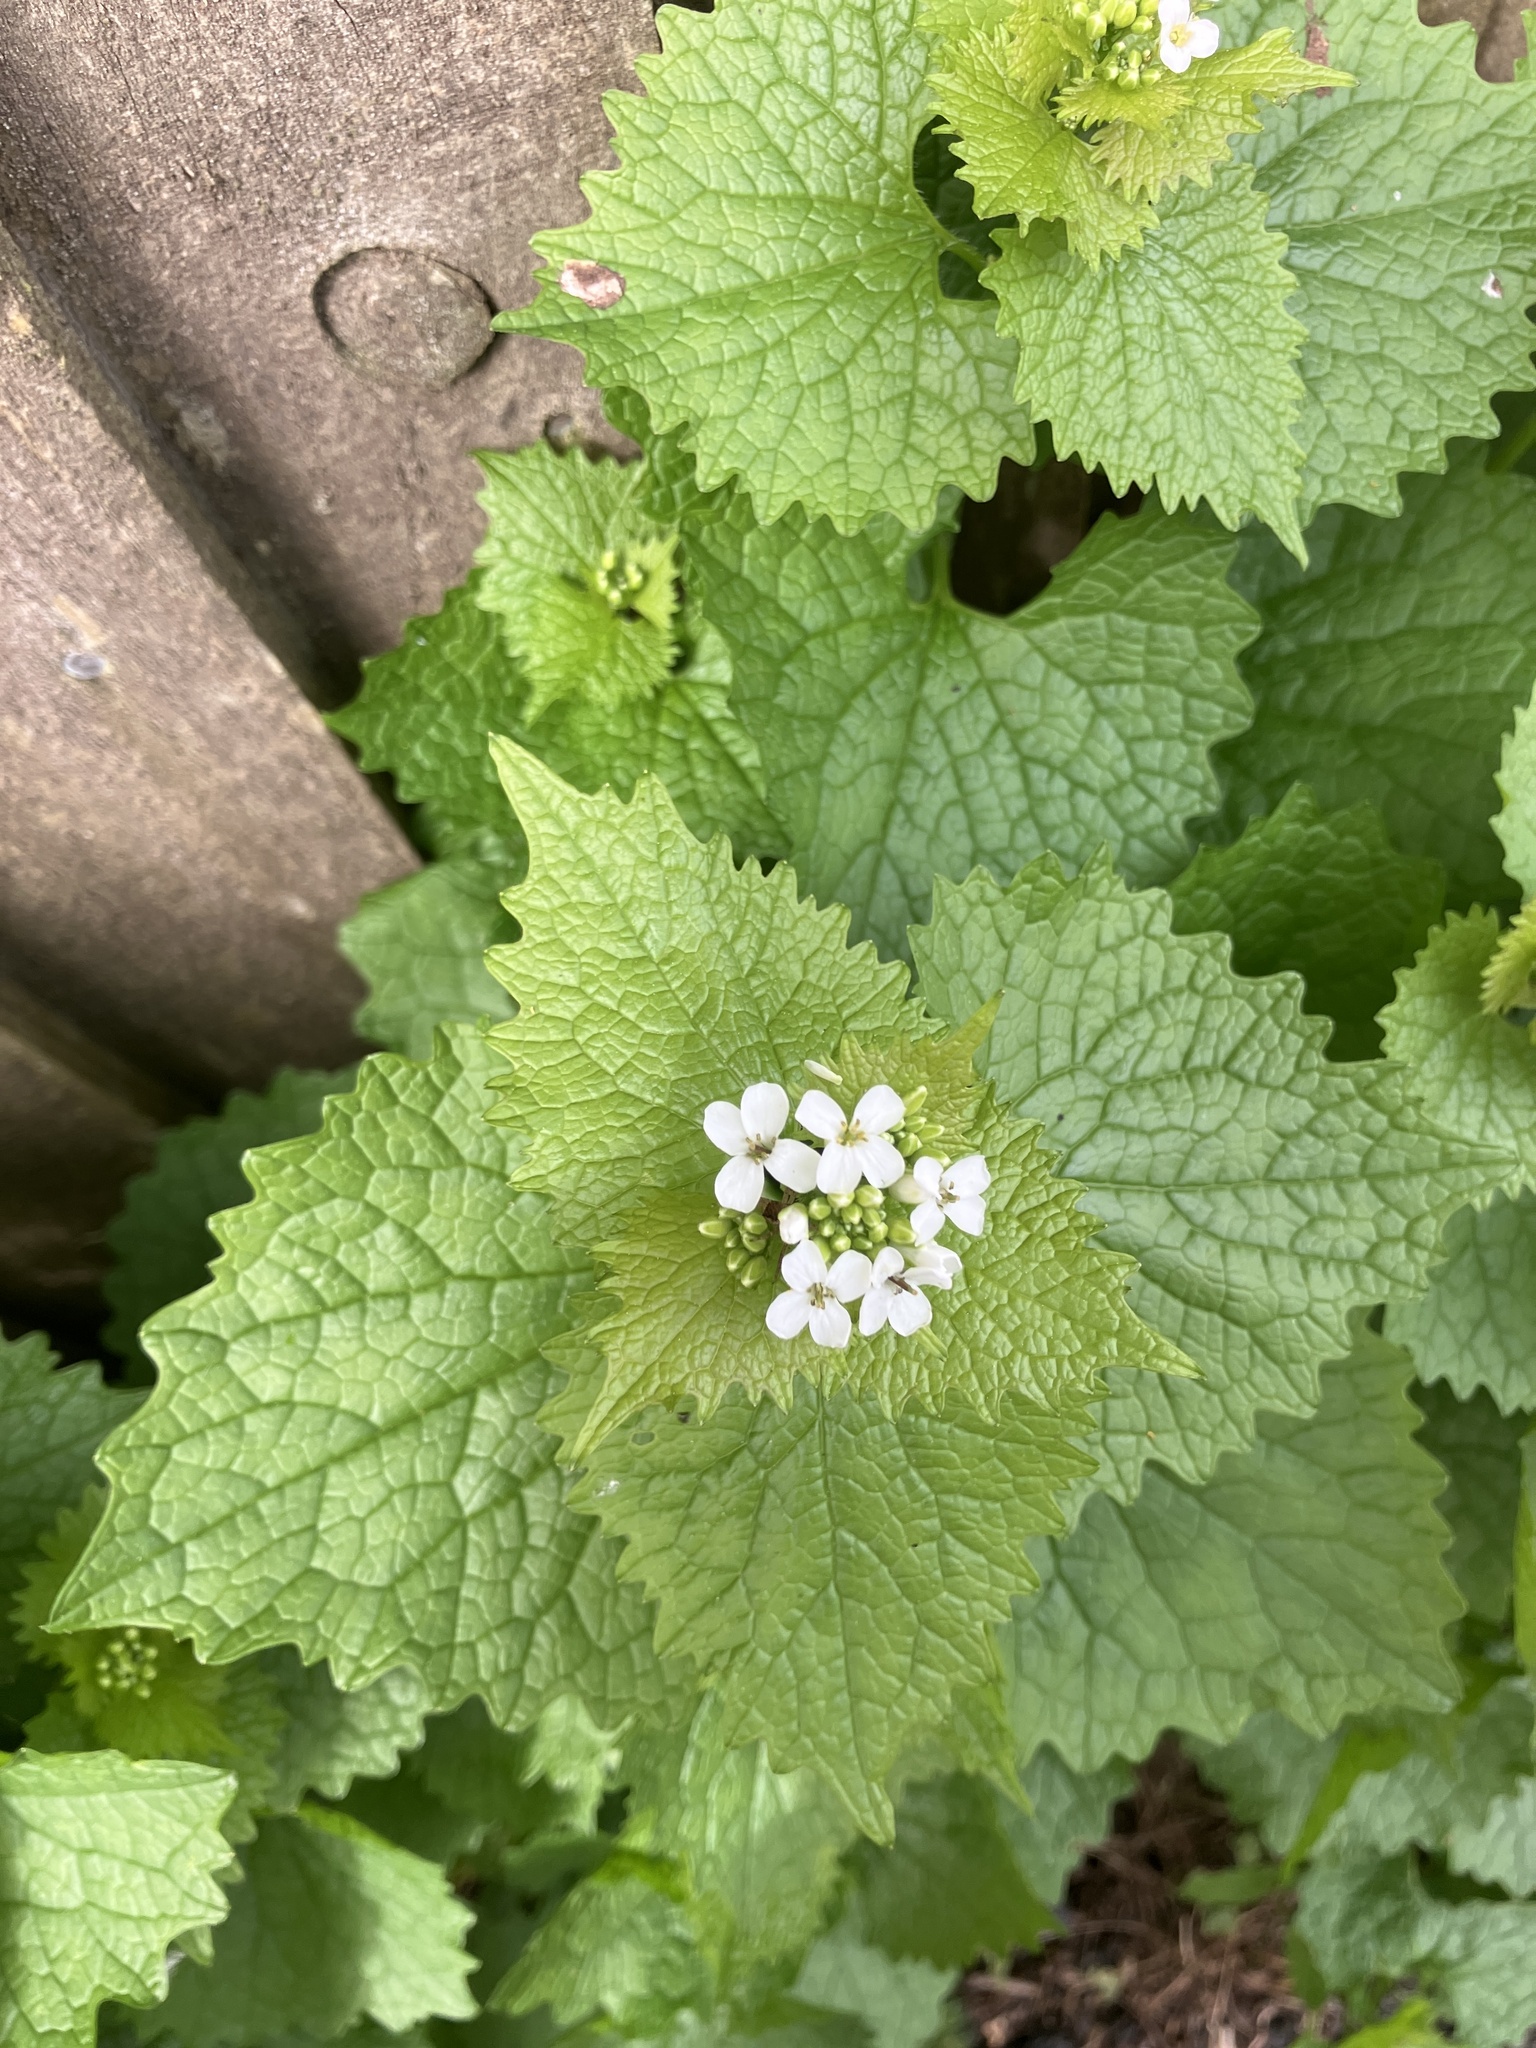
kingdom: Plantae
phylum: Tracheophyta
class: Magnoliopsida
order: Brassicales
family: Brassicaceae
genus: Alliaria
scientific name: Alliaria petiolata
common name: Garlic mustard
